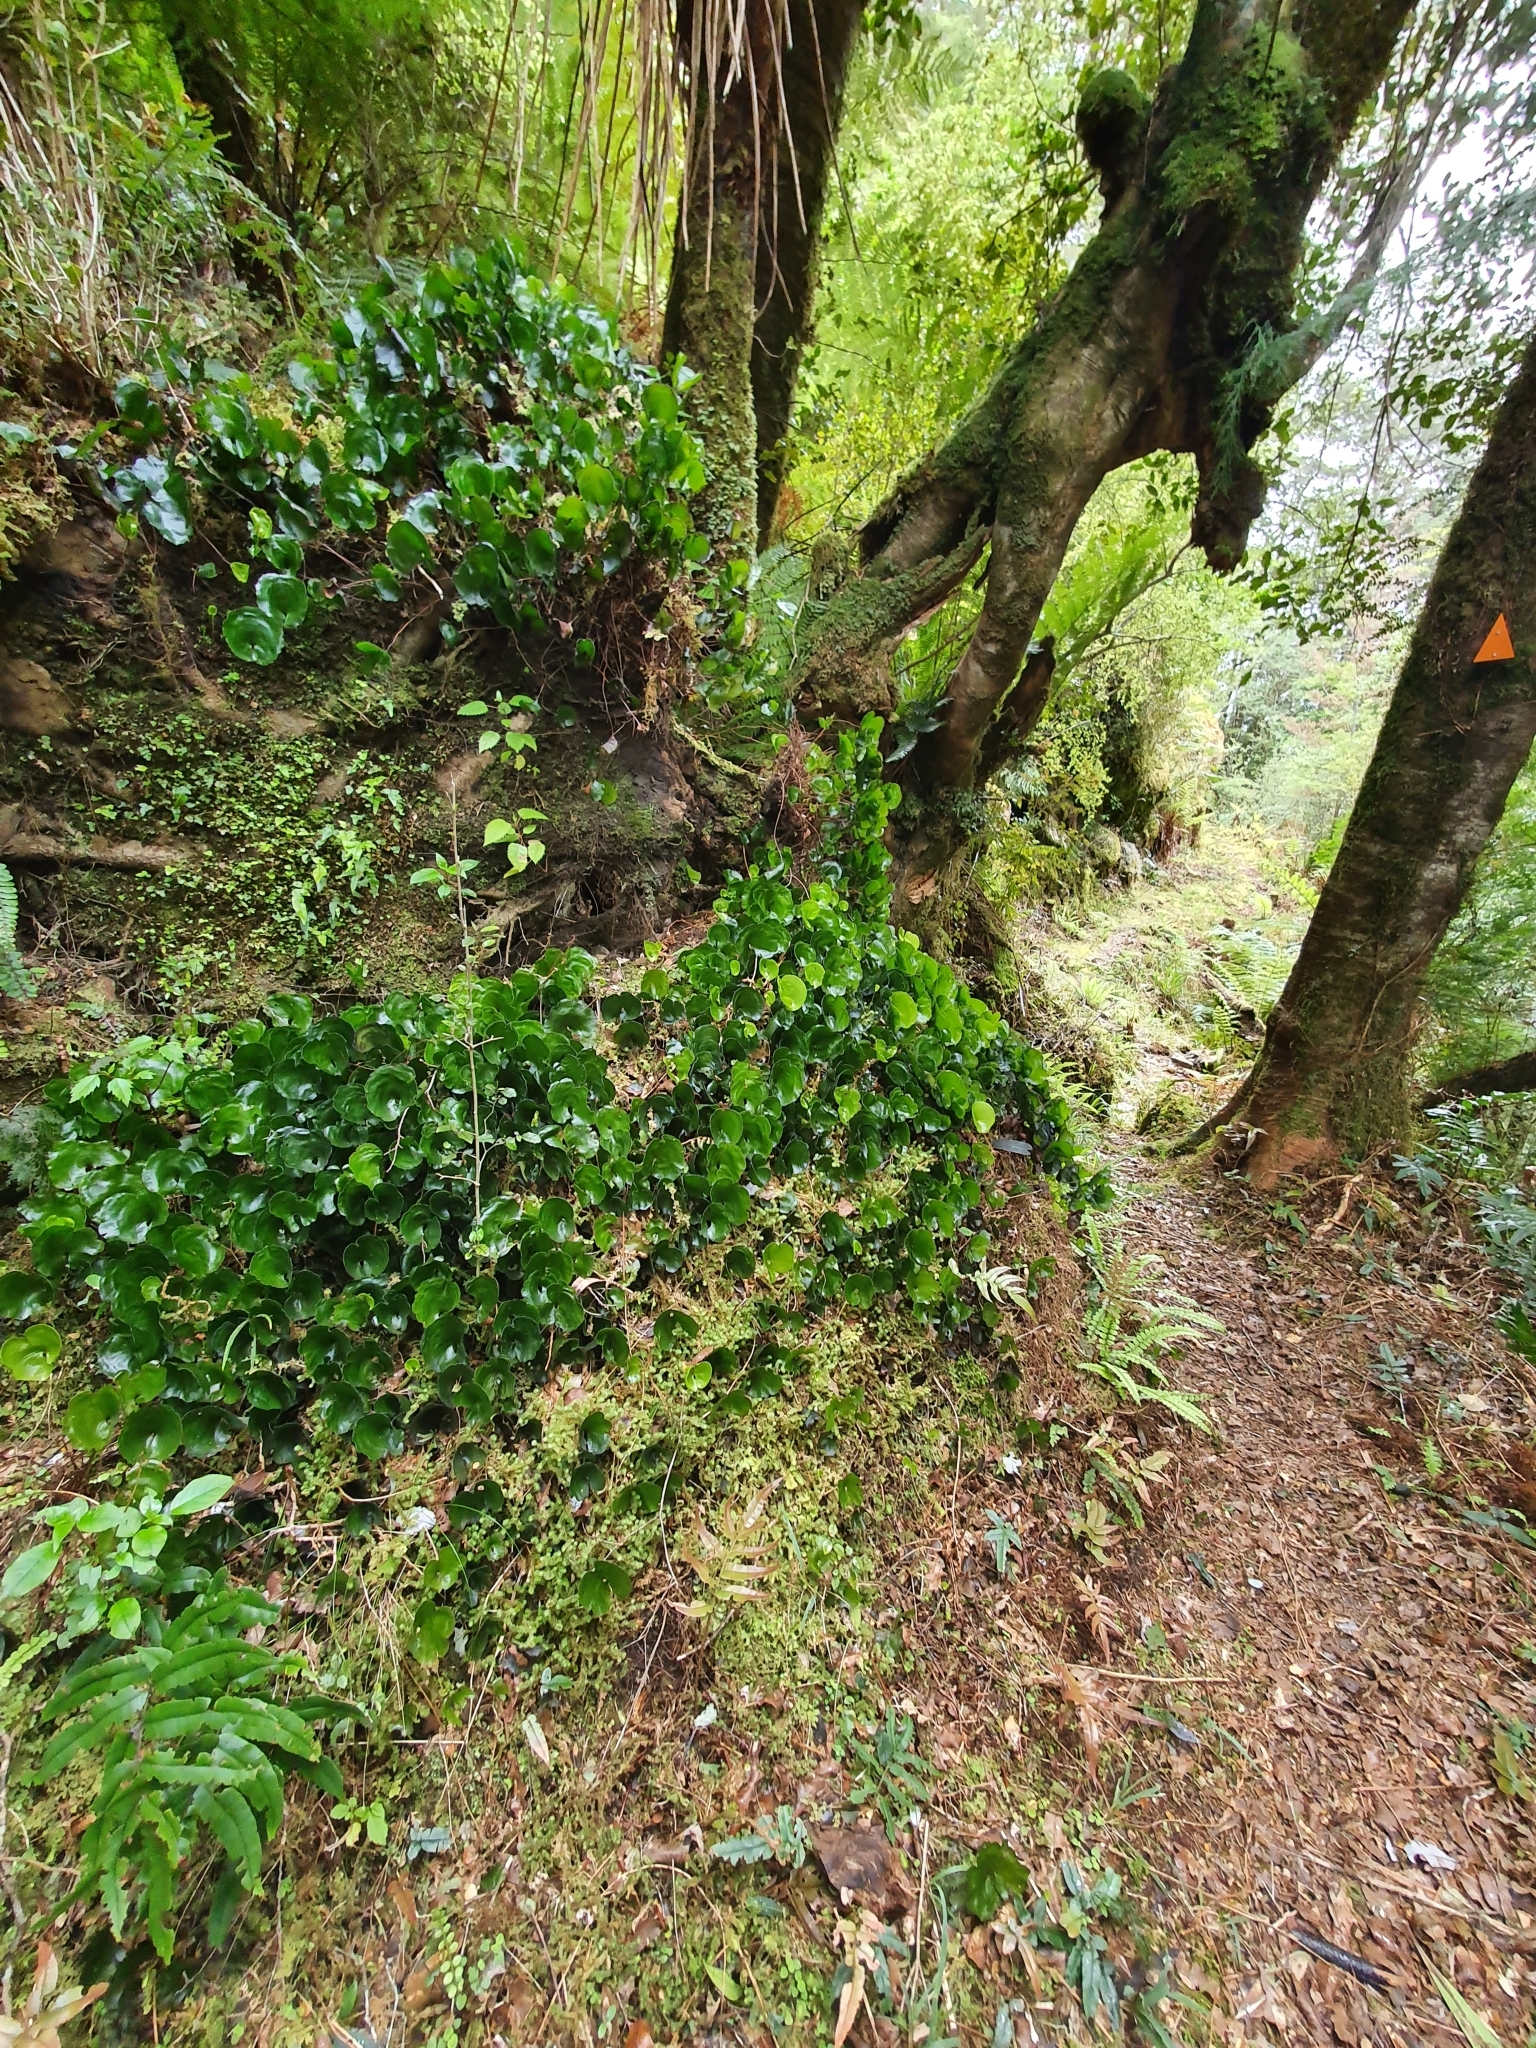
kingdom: Plantae
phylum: Tracheophyta
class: Polypodiopsida
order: Hymenophyllales
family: Hymenophyllaceae
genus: Hymenophyllum
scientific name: Hymenophyllum nephrophyllum
